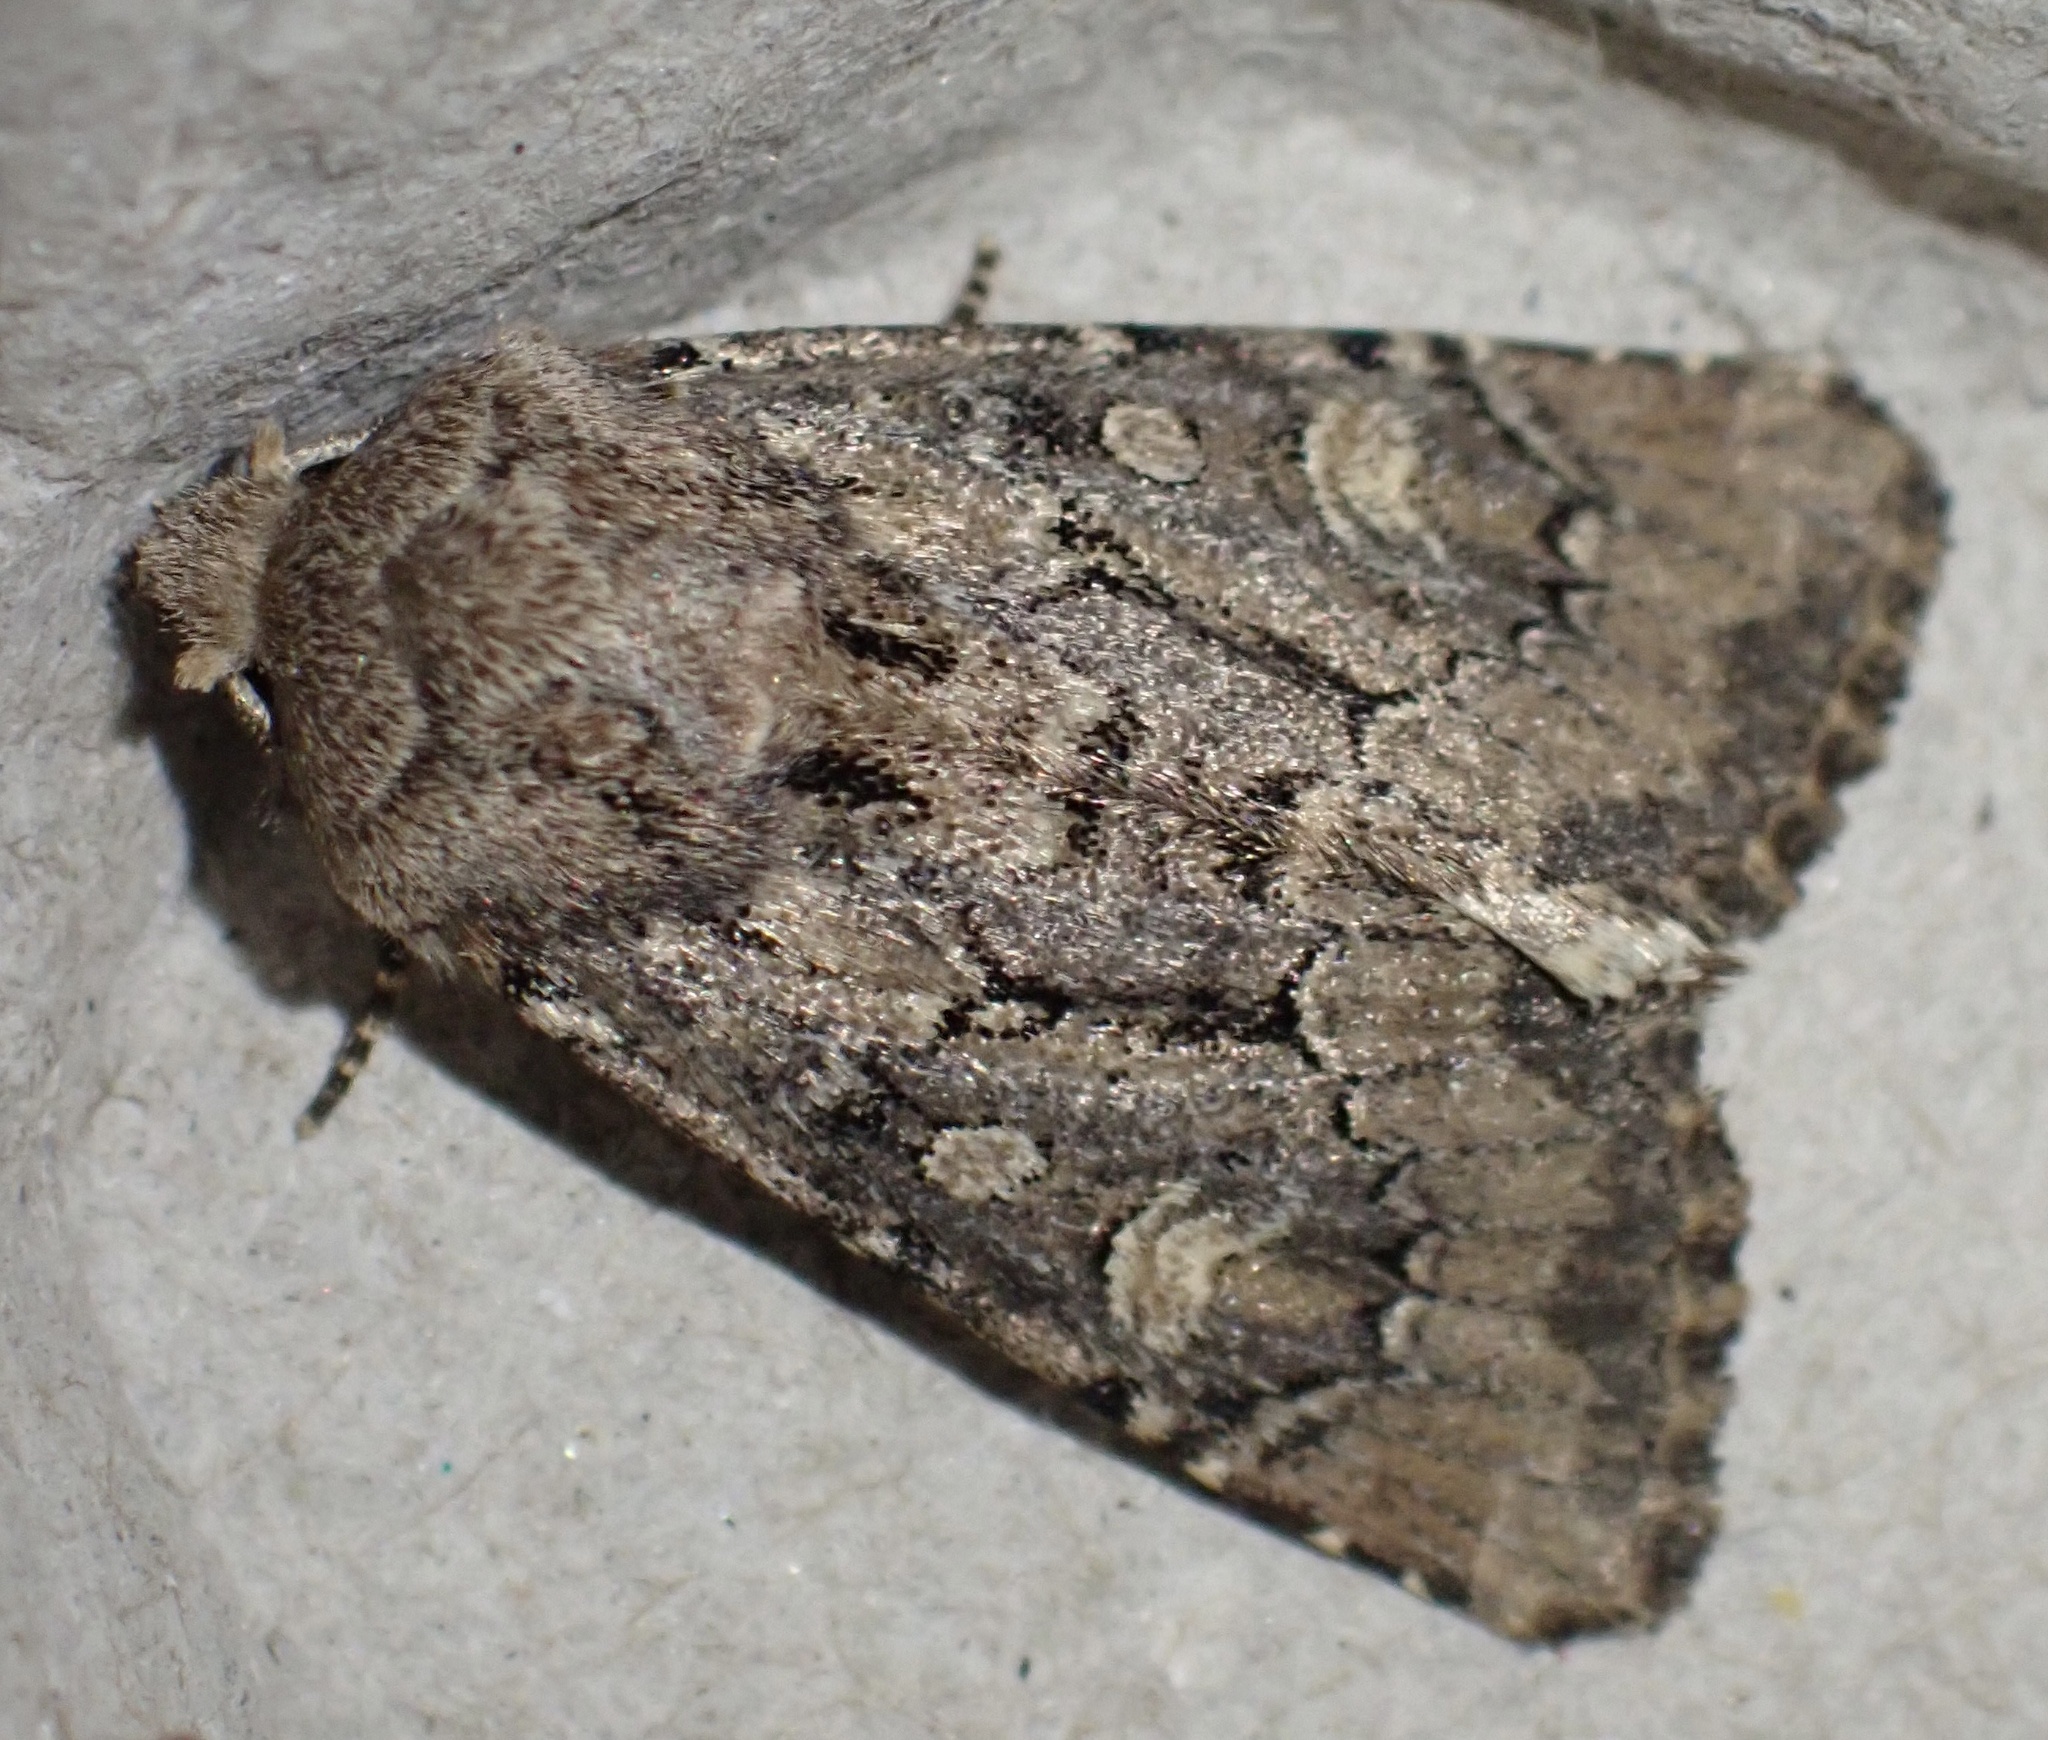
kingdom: Animalia
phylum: Arthropoda
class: Insecta
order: Lepidoptera
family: Noctuidae
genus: Luperina
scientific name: Luperina testacea
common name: Flounced rustic
